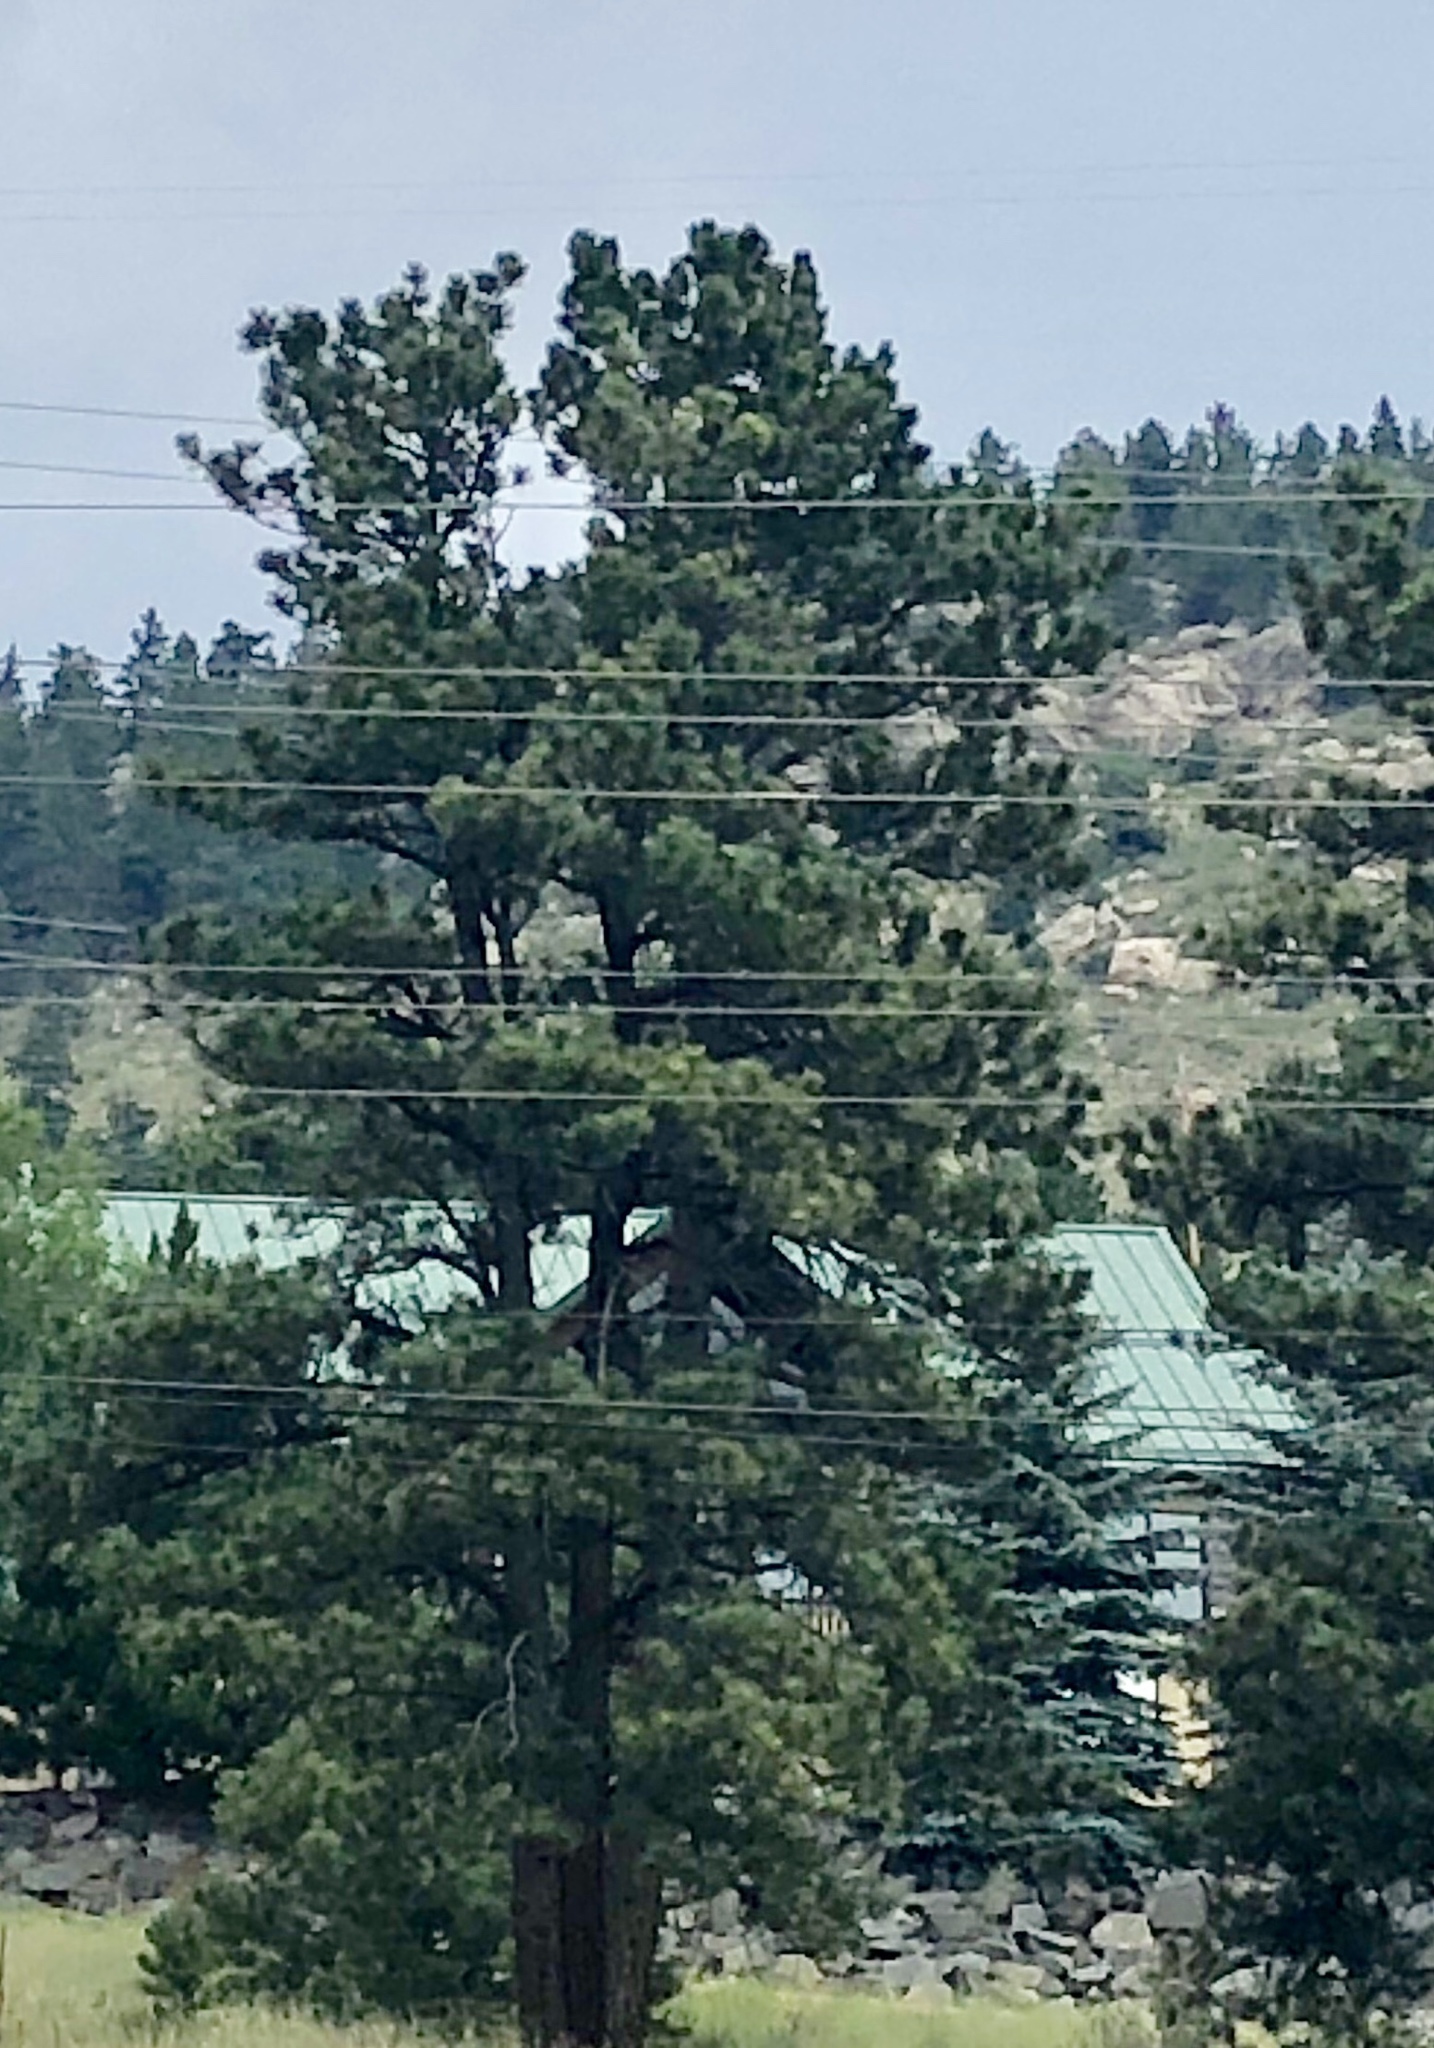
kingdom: Plantae
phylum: Tracheophyta
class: Pinopsida
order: Pinales
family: Pinaceae
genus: Pinus
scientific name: Pinus ponderosa
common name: Western yellow-pine
